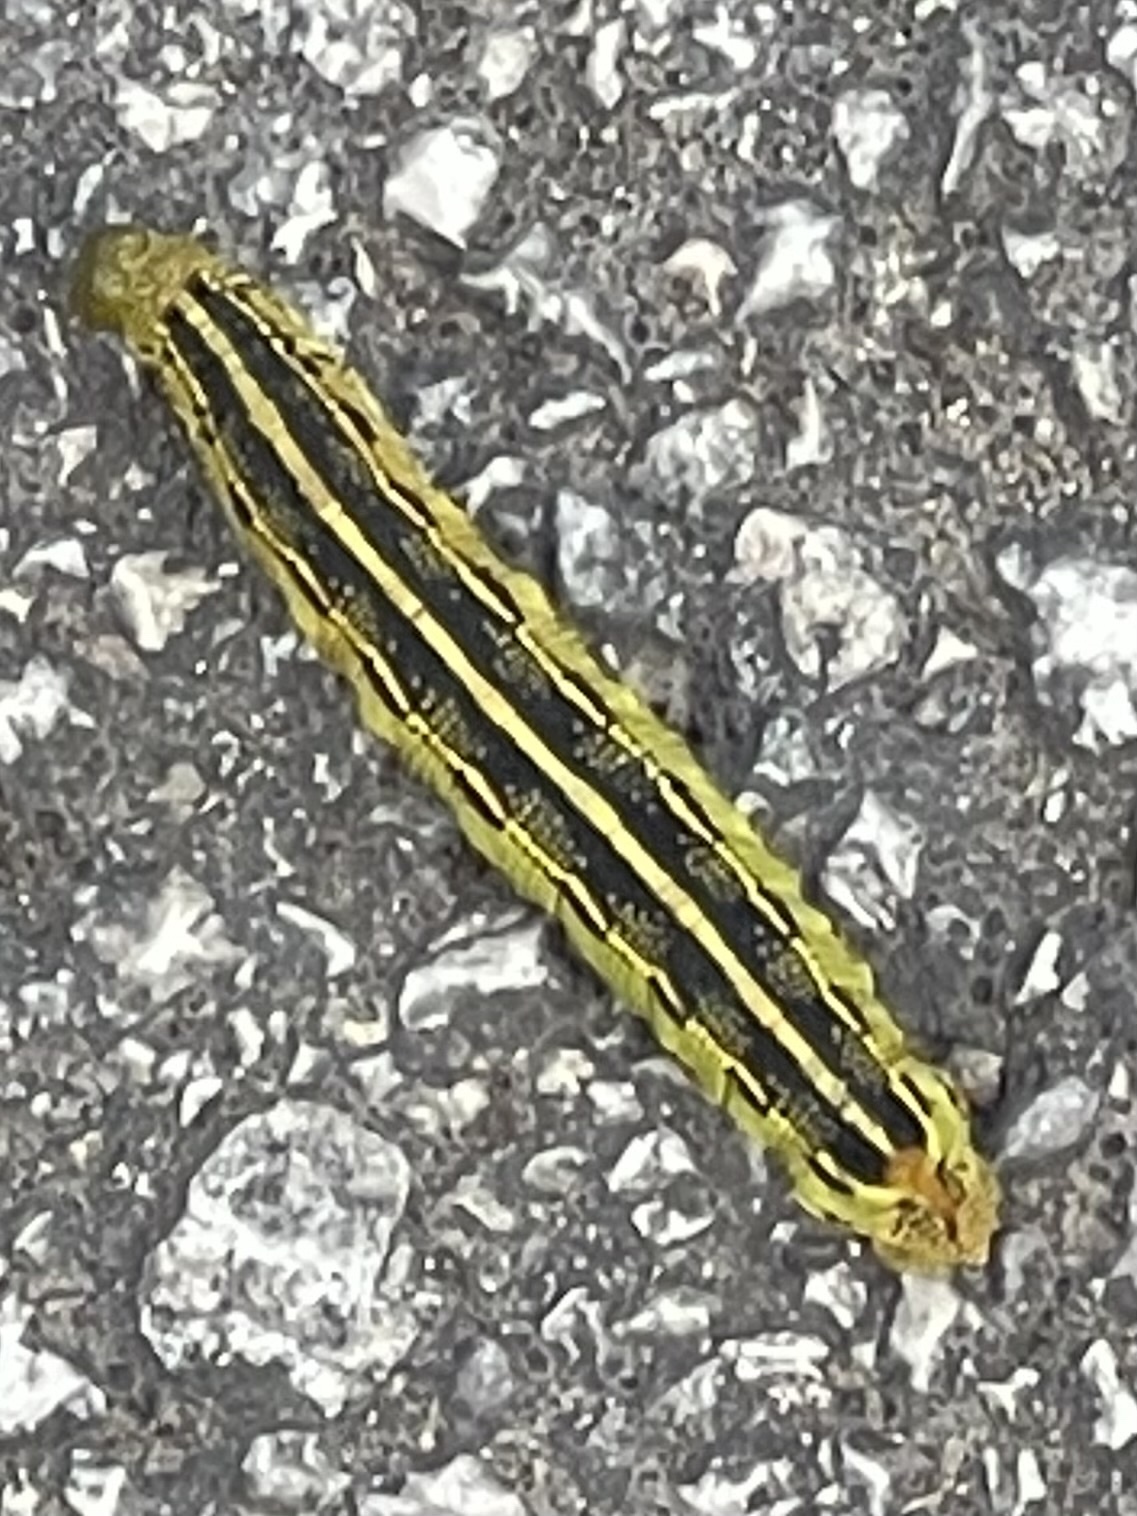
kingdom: Animalia
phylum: Arthropoda
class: Insecta
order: Lepidoptera
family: Sphingidae
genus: Hyles
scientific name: Hyles lineata
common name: White-lined sphinx
